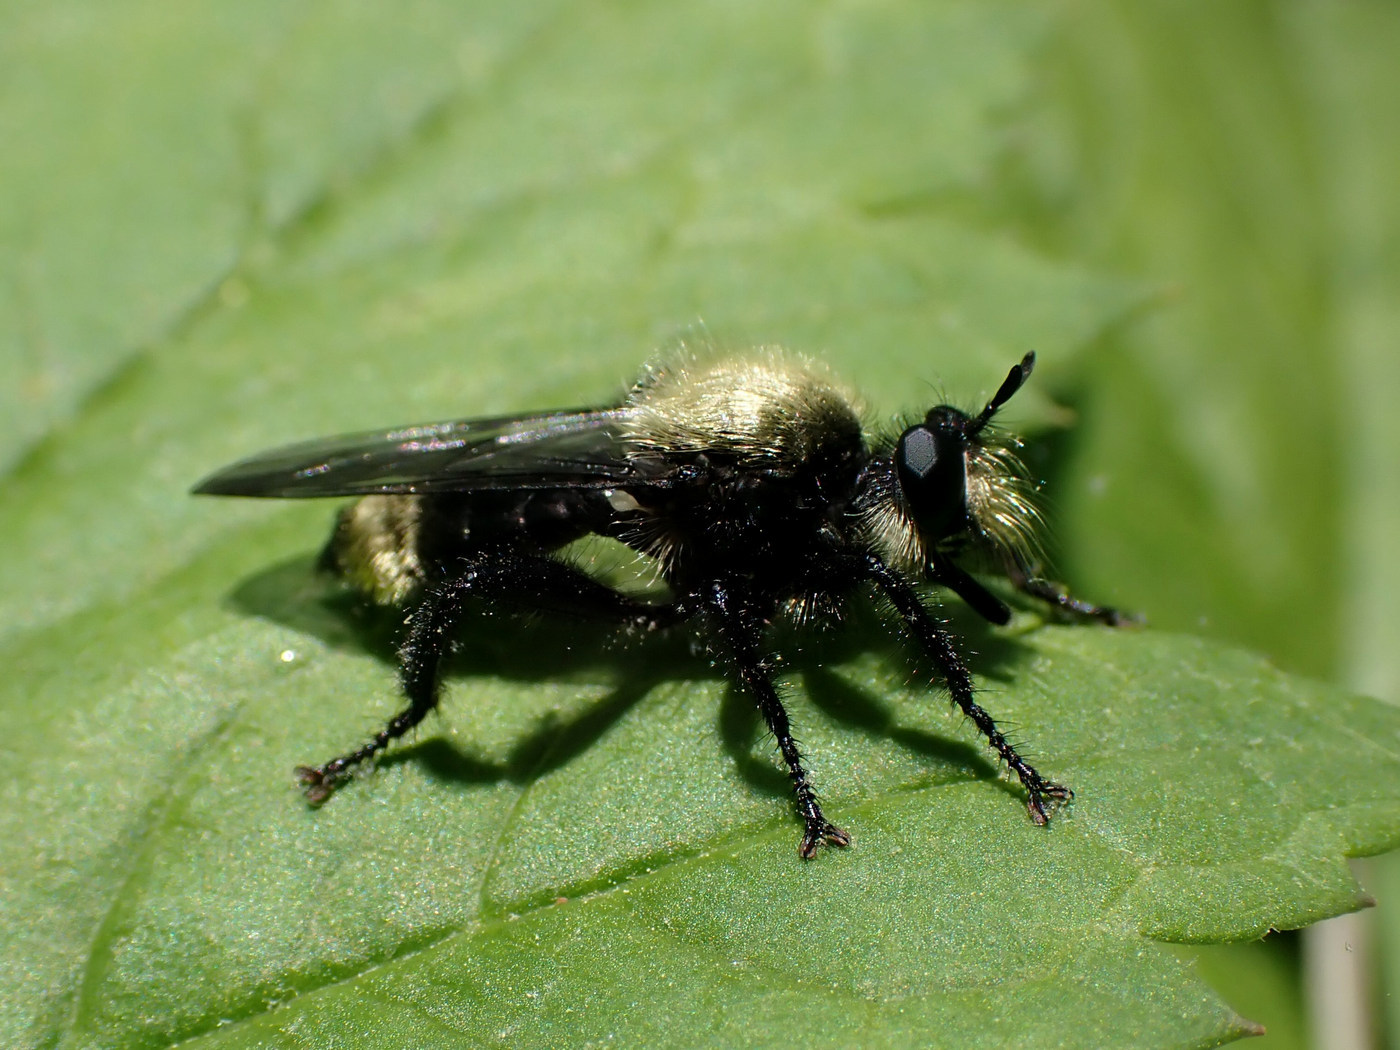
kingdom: Animalia
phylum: Arthropoda
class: Insecta
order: Diptera
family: Asilidae
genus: Laphria
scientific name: Laphria divisor
